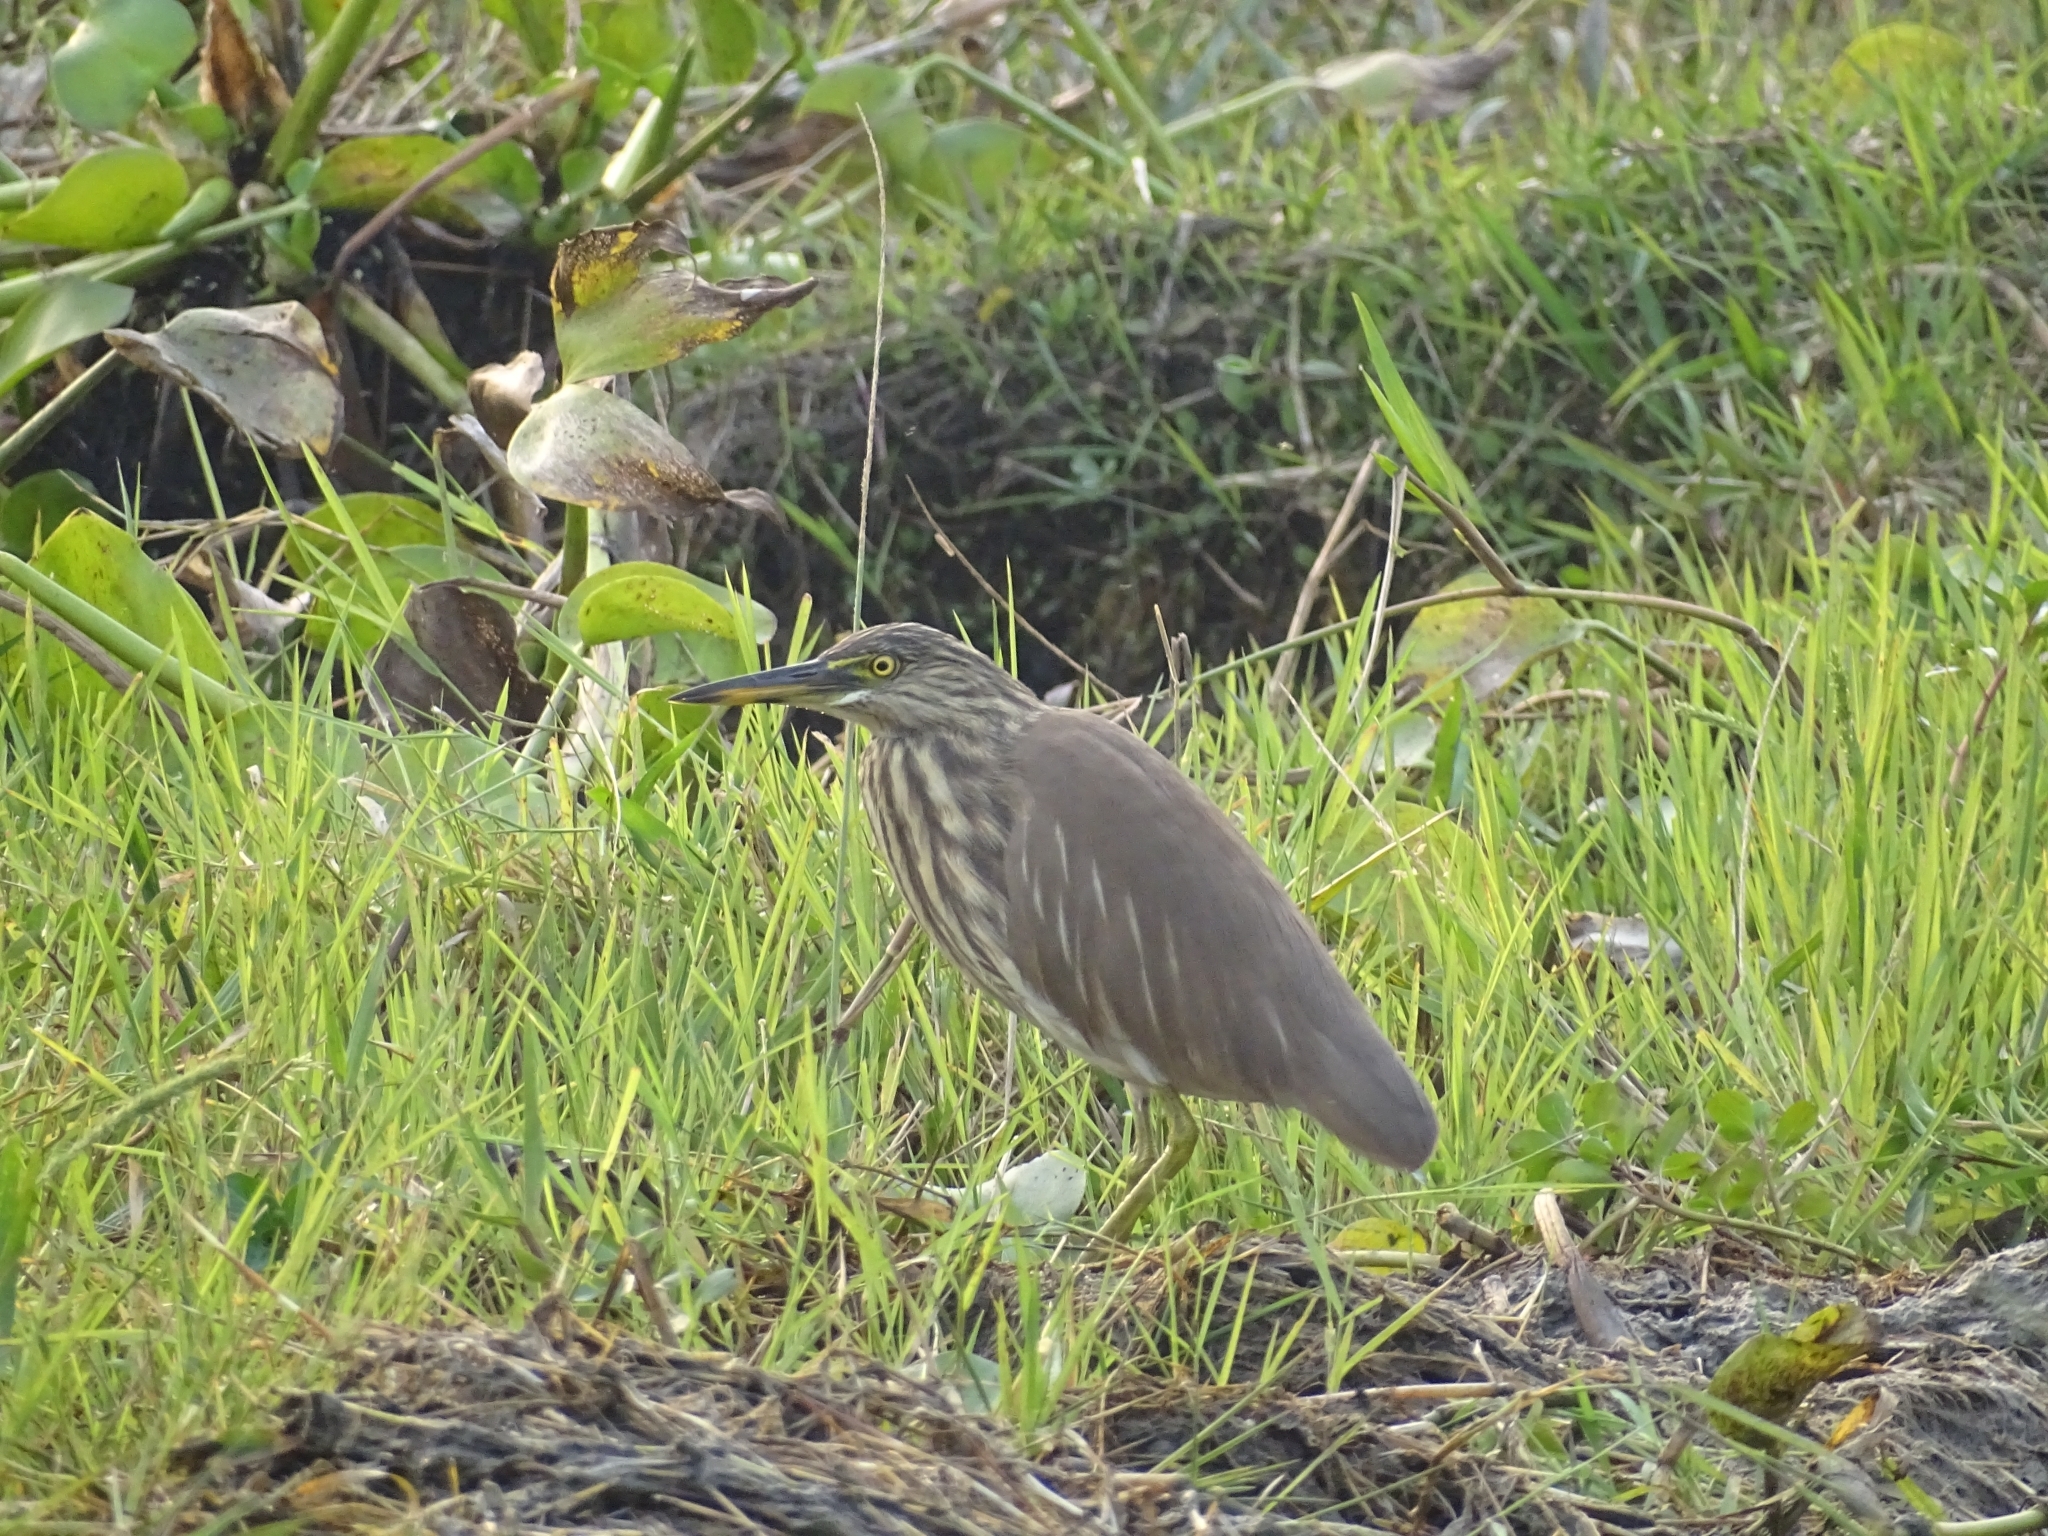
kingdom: Animalia
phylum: Chordata
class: Aves
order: Pelecaniformes
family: Ardeidae
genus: Ardeola
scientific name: Ardeola grayii
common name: Indian pond heron
